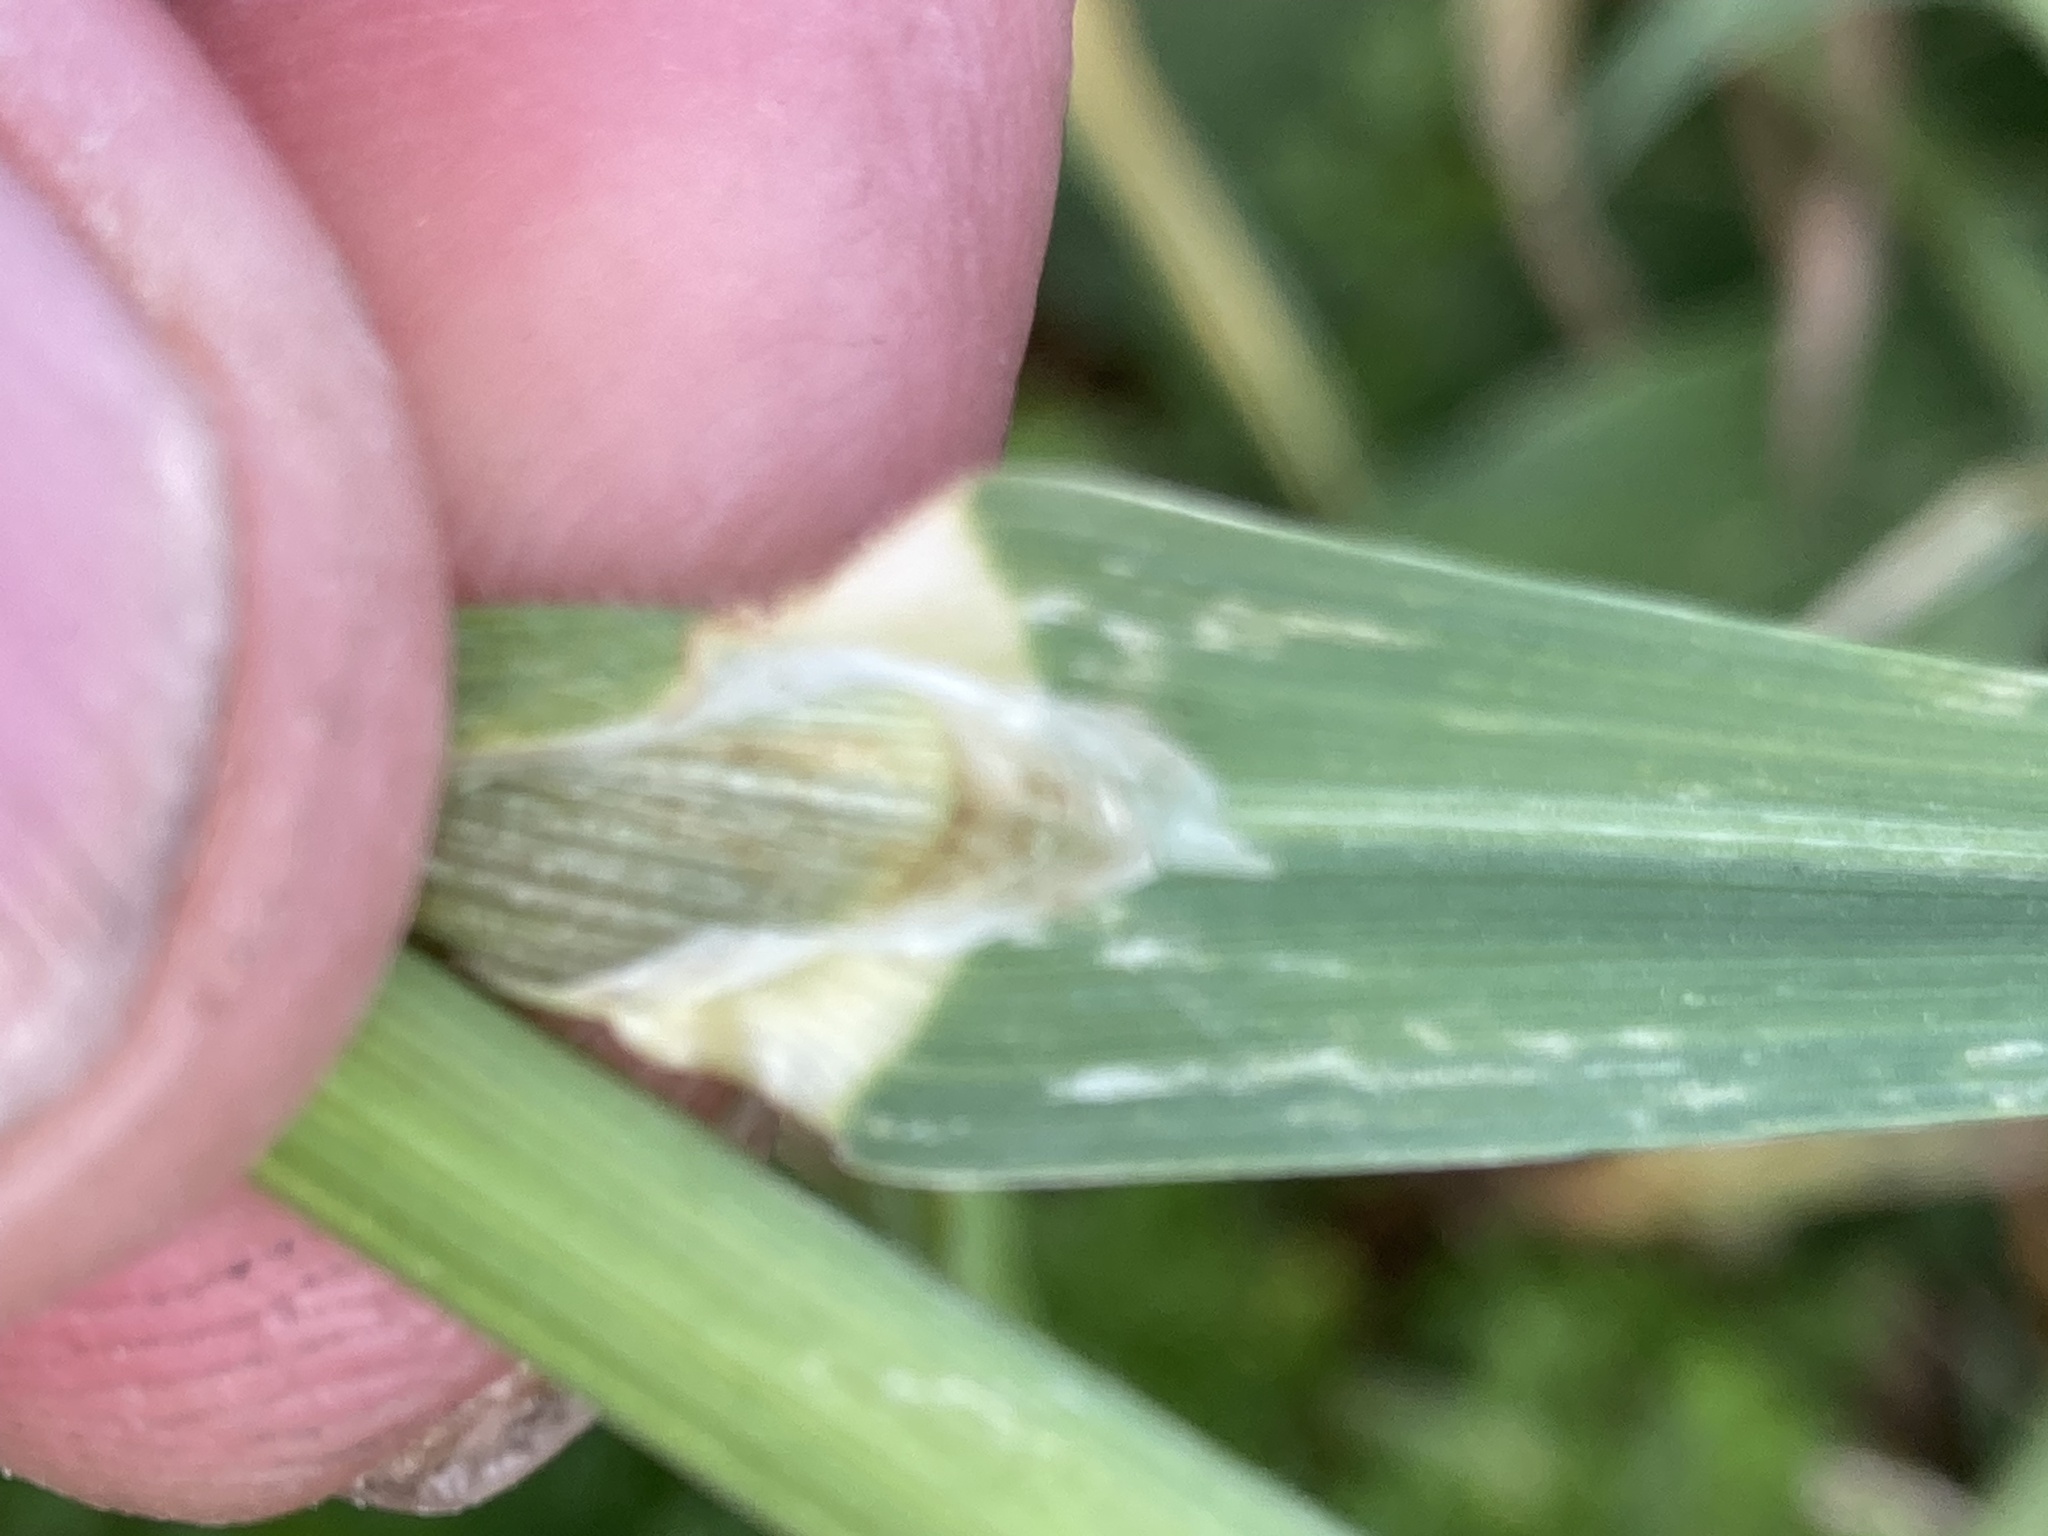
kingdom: Plantae
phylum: Tracheophyta
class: Liliopsida
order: Poales
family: Poaceae
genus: Bromus
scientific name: Bromus catharticus
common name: Rescuegrass
